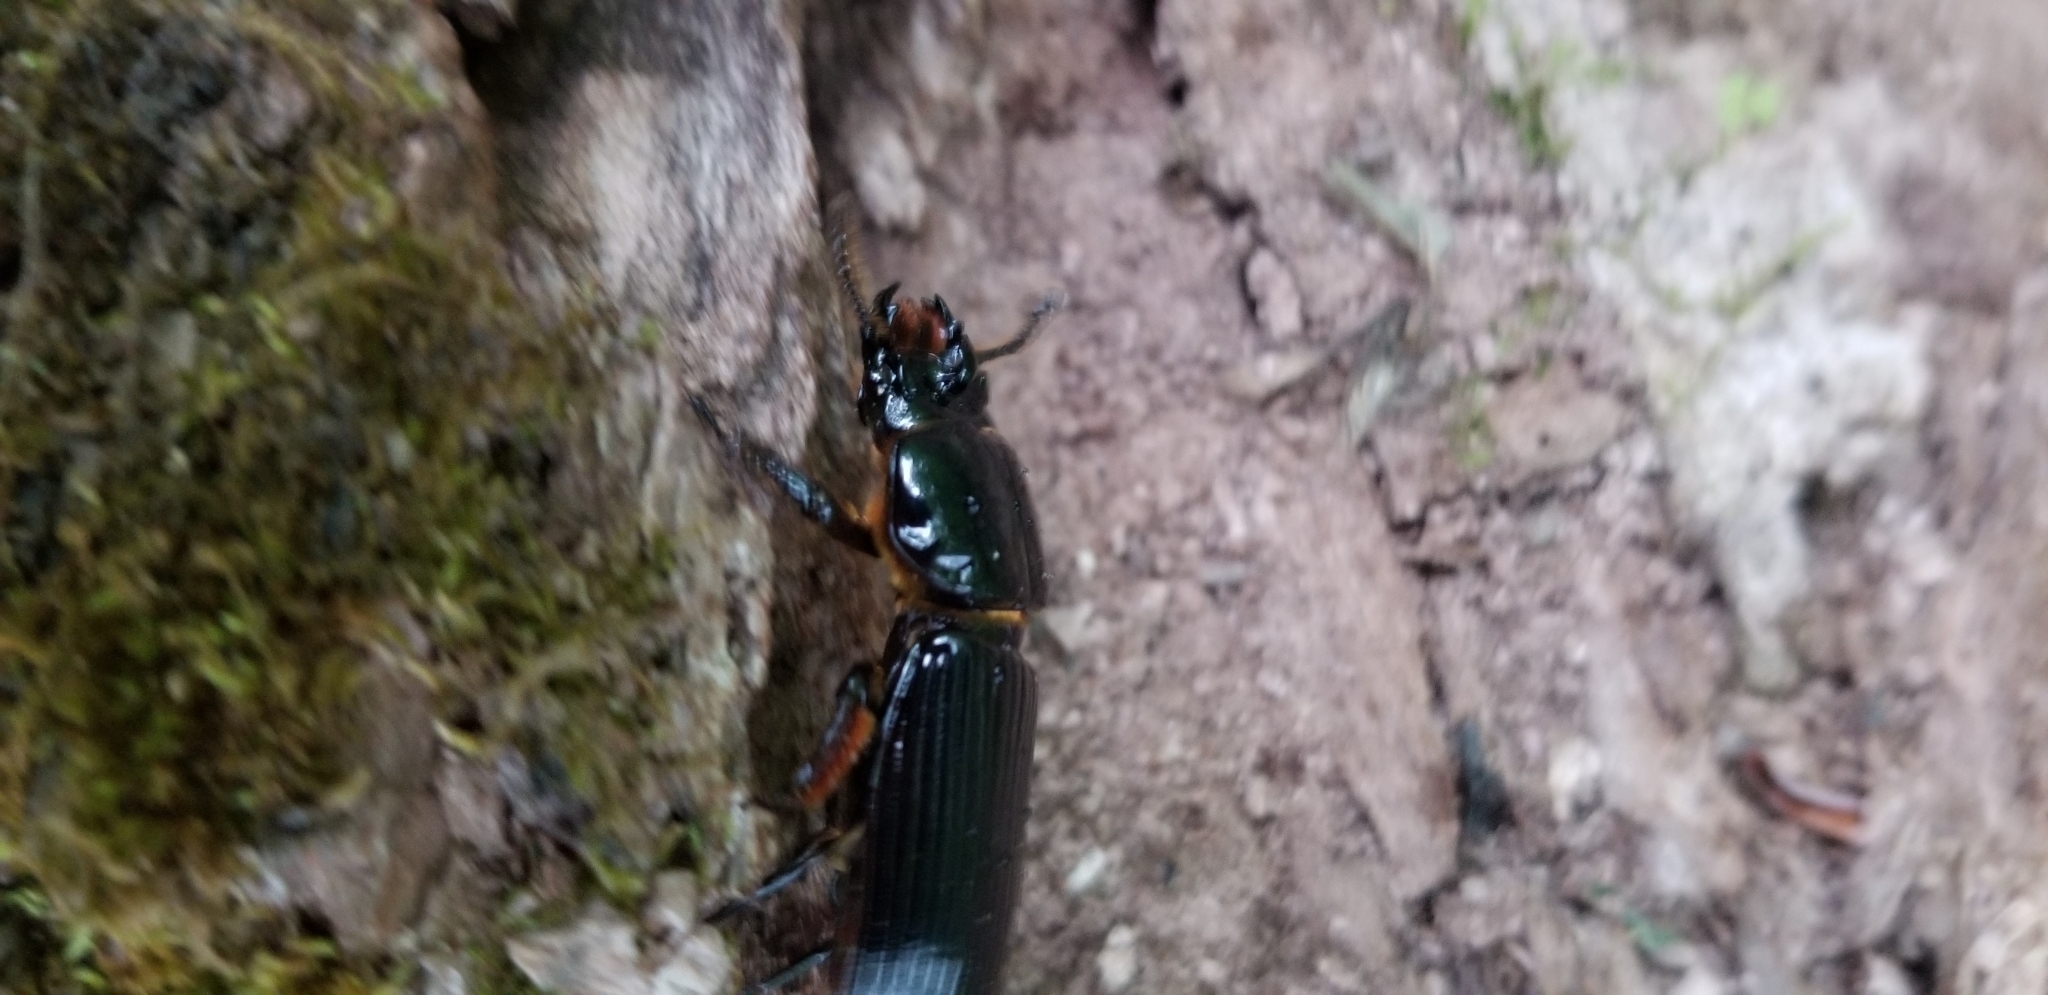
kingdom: Animalia
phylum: Arthropoda
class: Insecta
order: Coleoptera
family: Passalidae
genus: Odontotaenius
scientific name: Odontotaenius disjunctus
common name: Patent leather beetle
